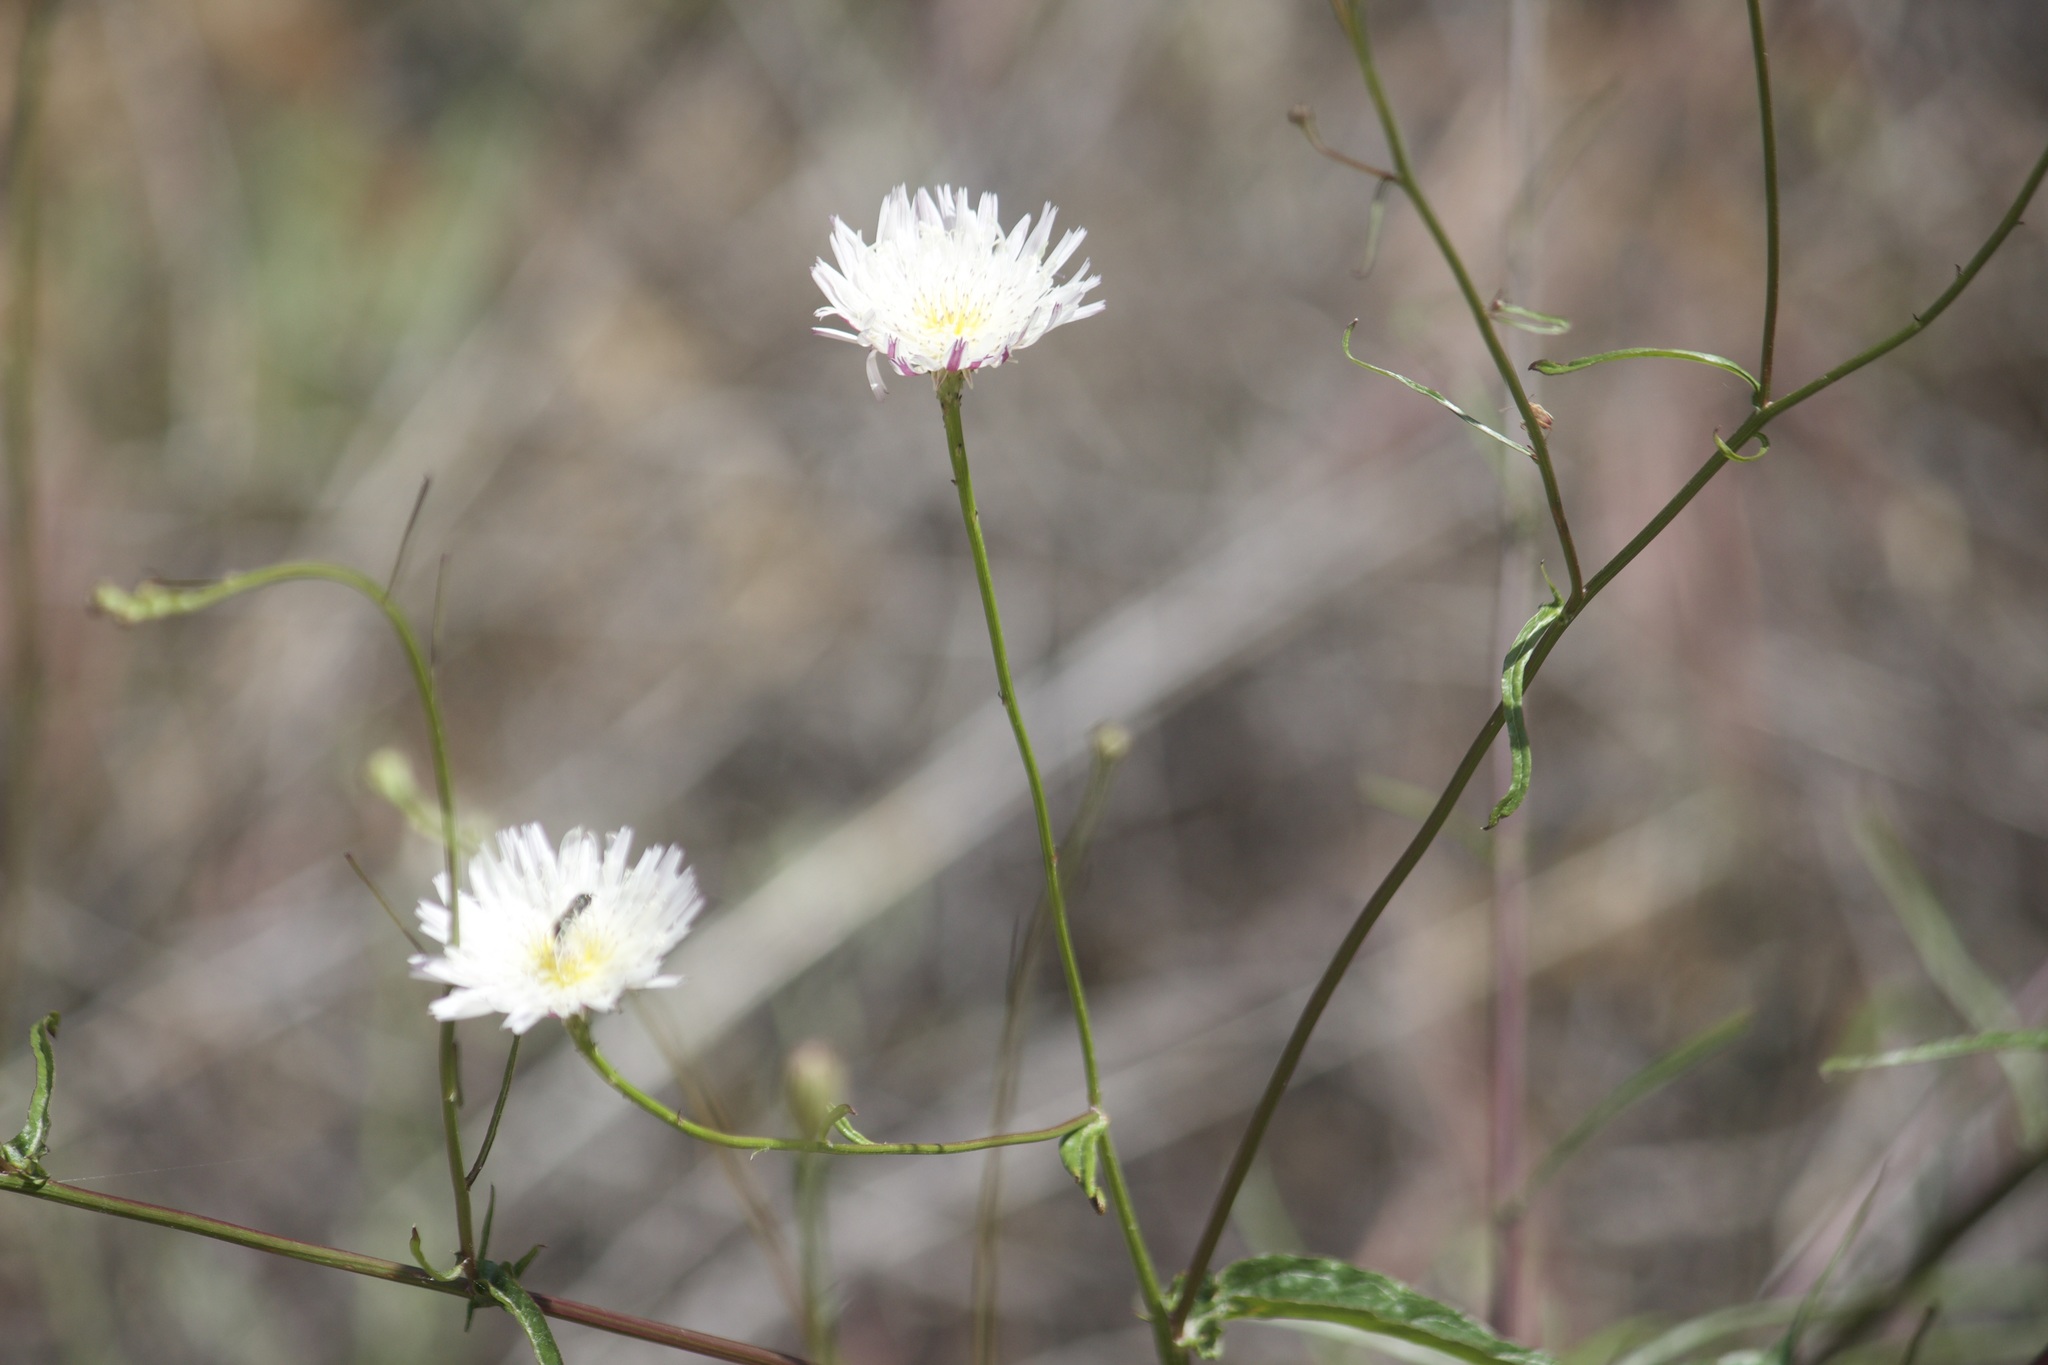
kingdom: Plantae
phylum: Tracheophyta
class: Magnoliopsida
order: Asterales
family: Asteraceae
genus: Malacothrix
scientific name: Malacothrix saxatilis
